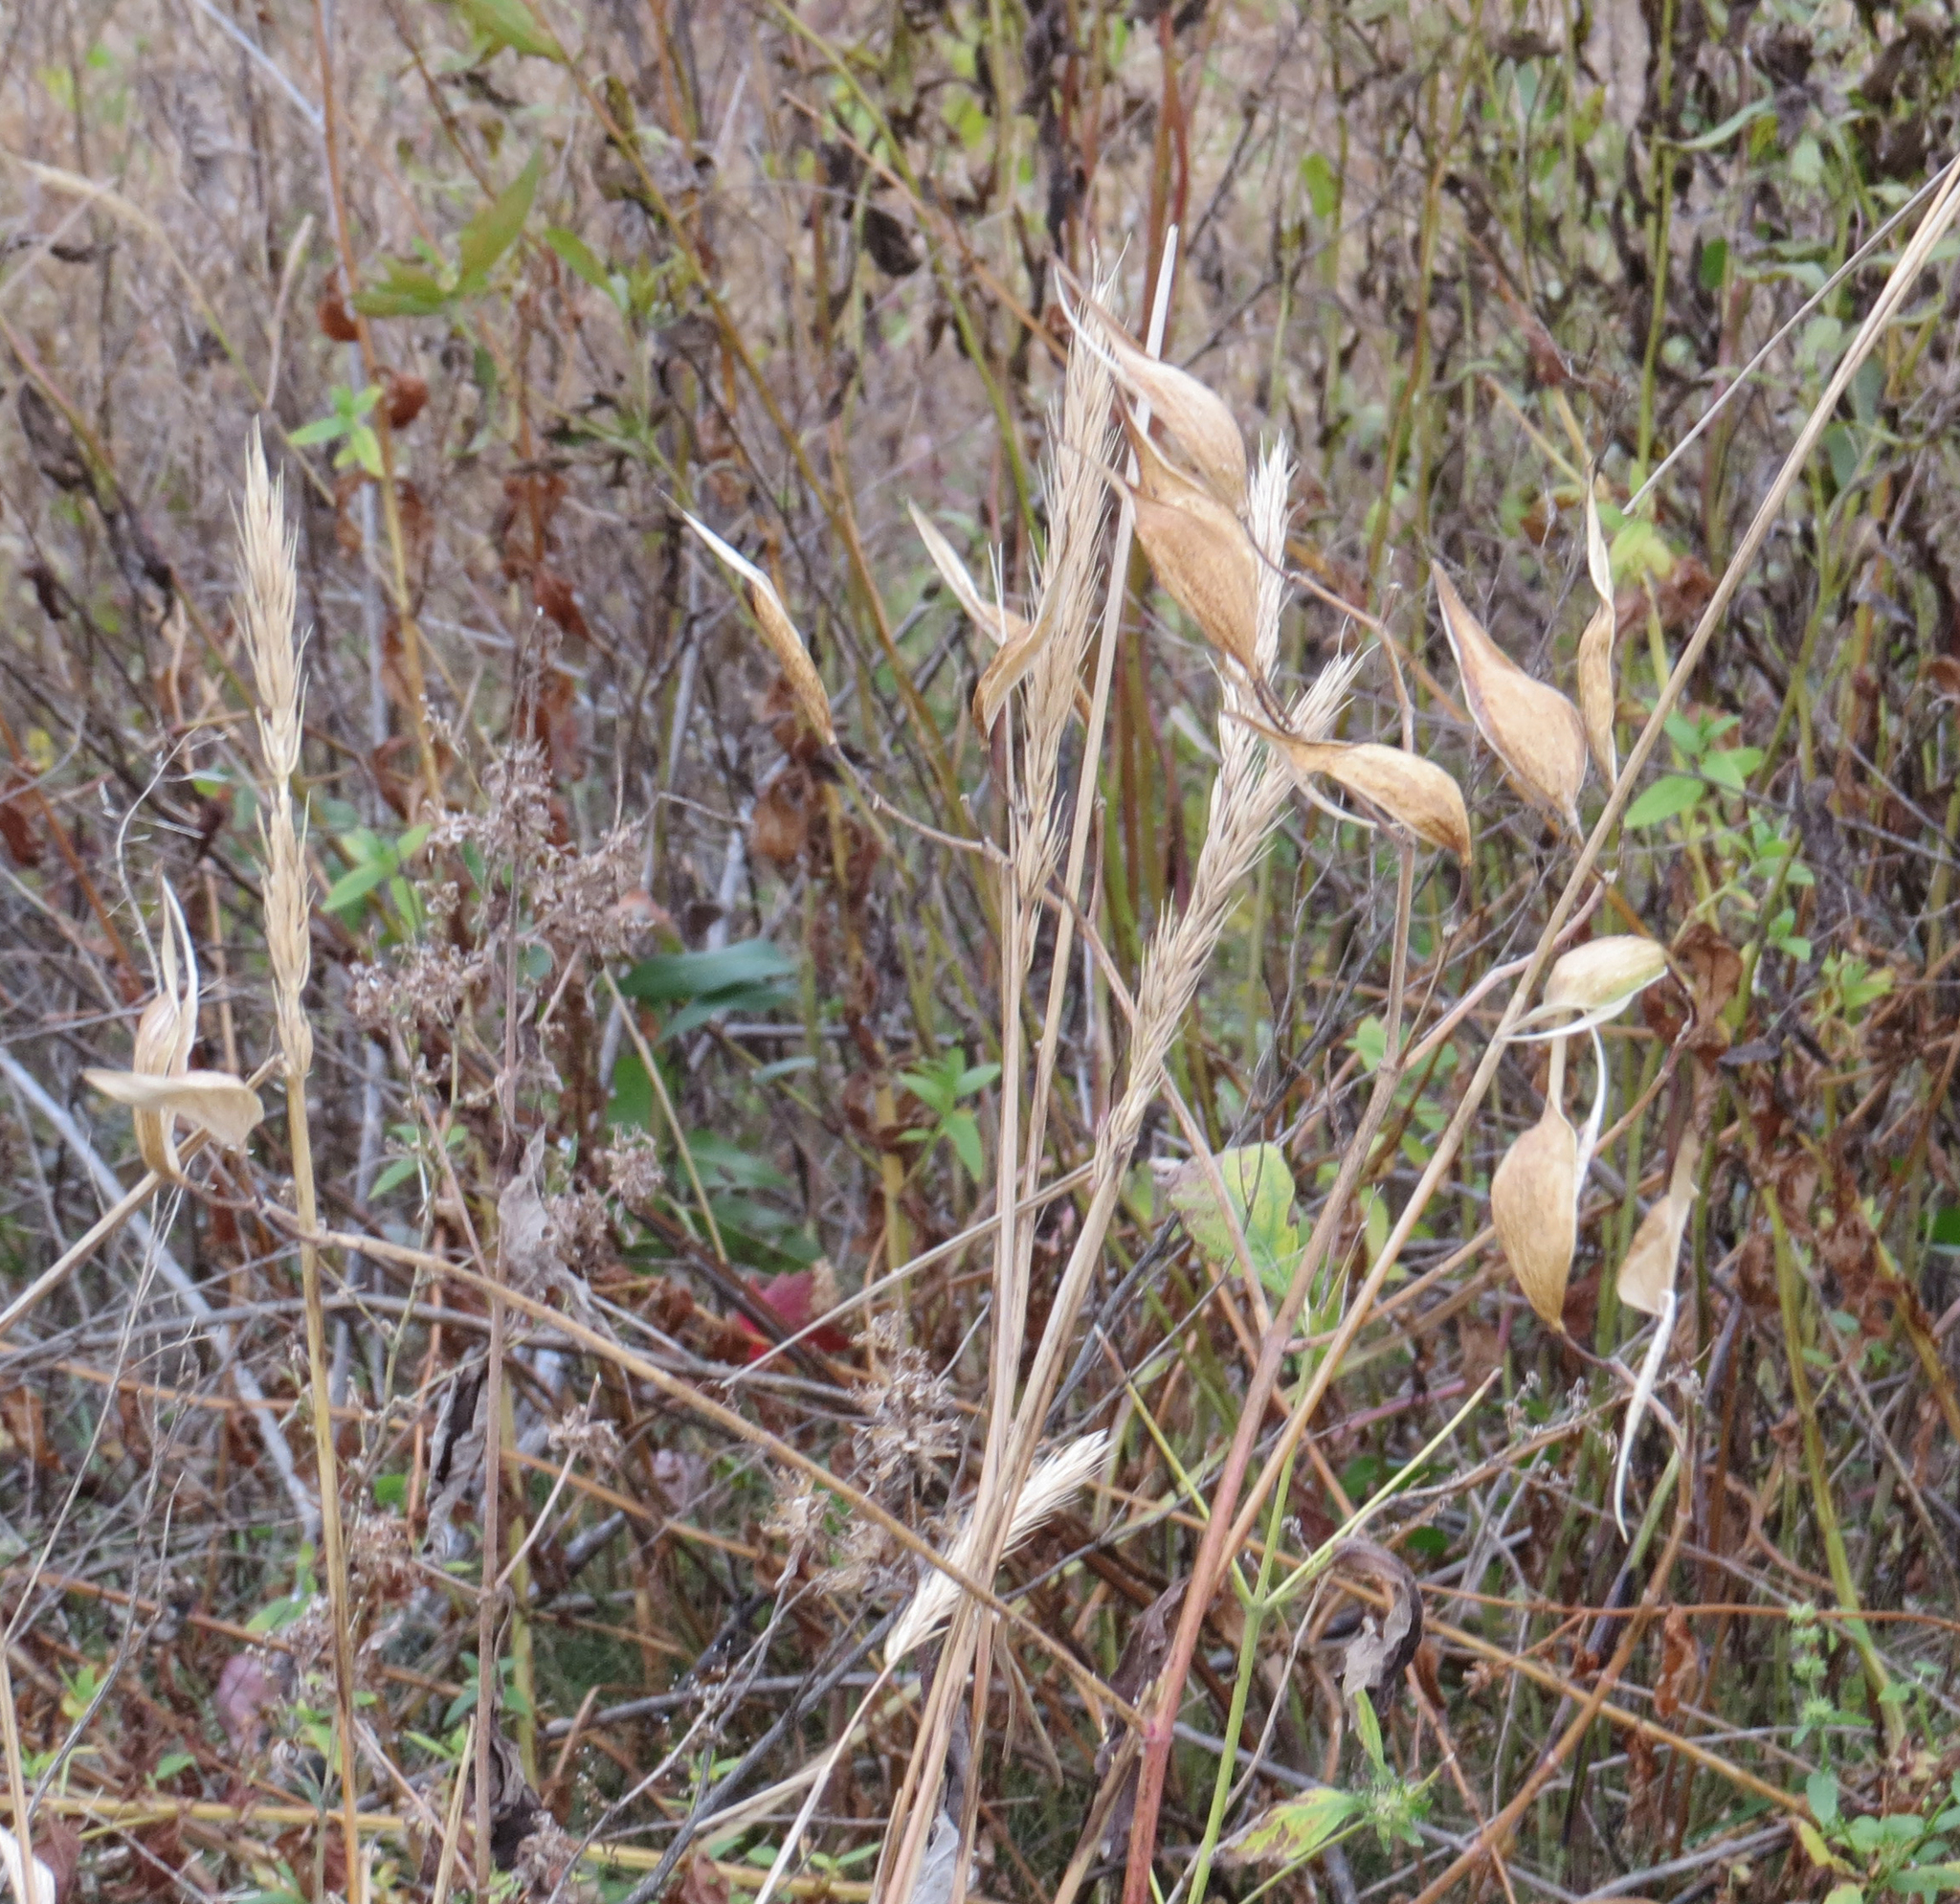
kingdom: Plantae
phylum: Tracheophyta
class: Magnoliopsida
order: Gentianales
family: Apocynaceae
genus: Asclepias
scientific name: Asclepias incarnata
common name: Swamp milkweed
